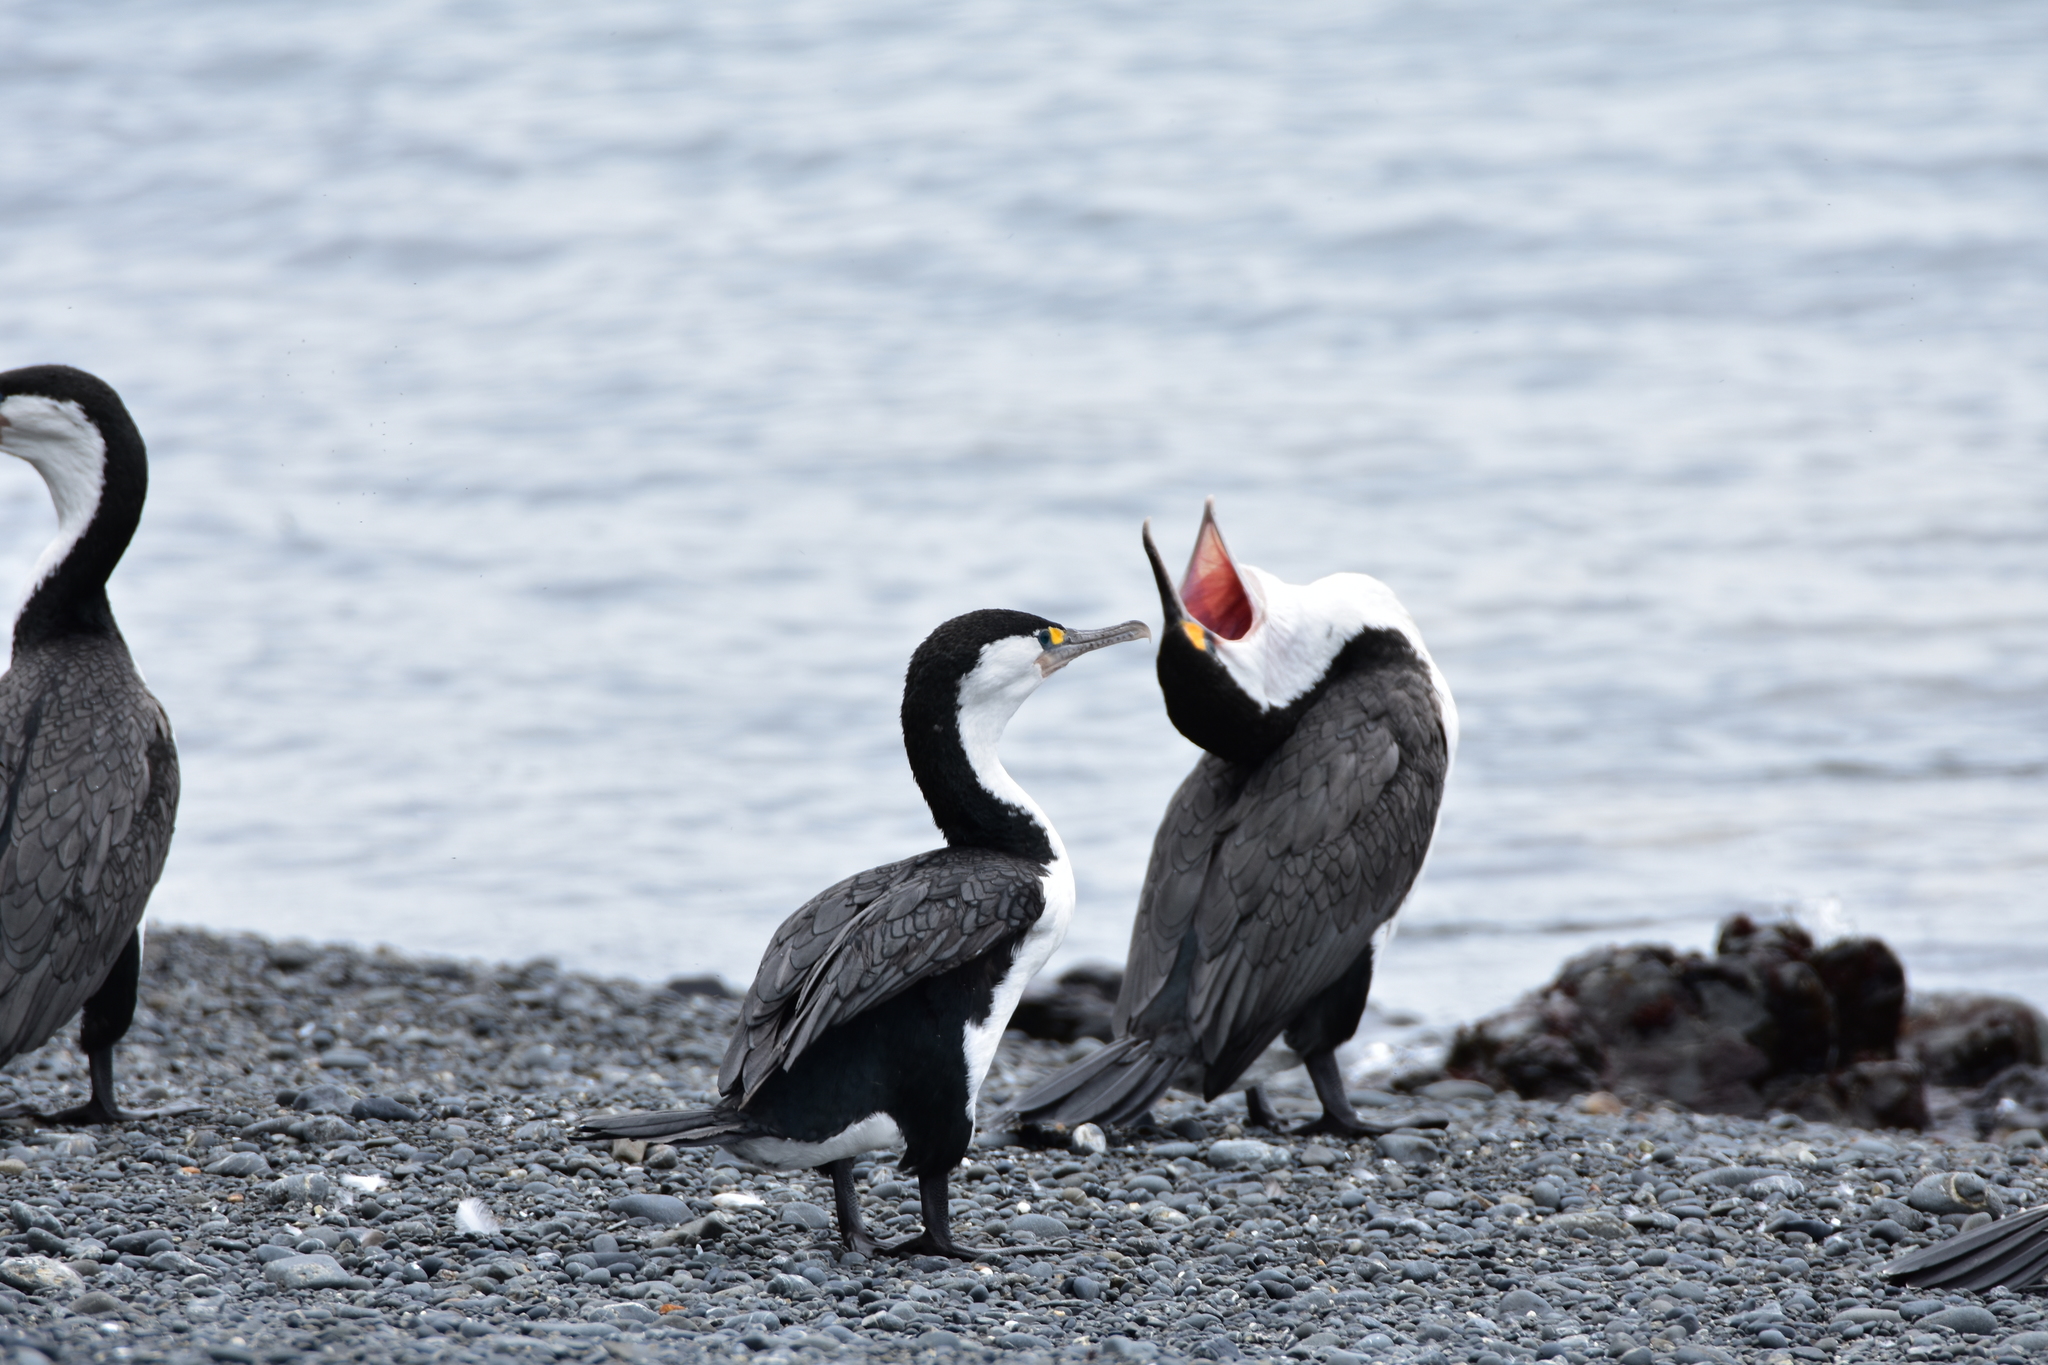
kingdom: Animalia
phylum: Chordata
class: Aves
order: Suliformes
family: Phalacrocoracidae
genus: Phalacrocorax
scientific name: Phalacrocorax varius
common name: Pied cormorant
